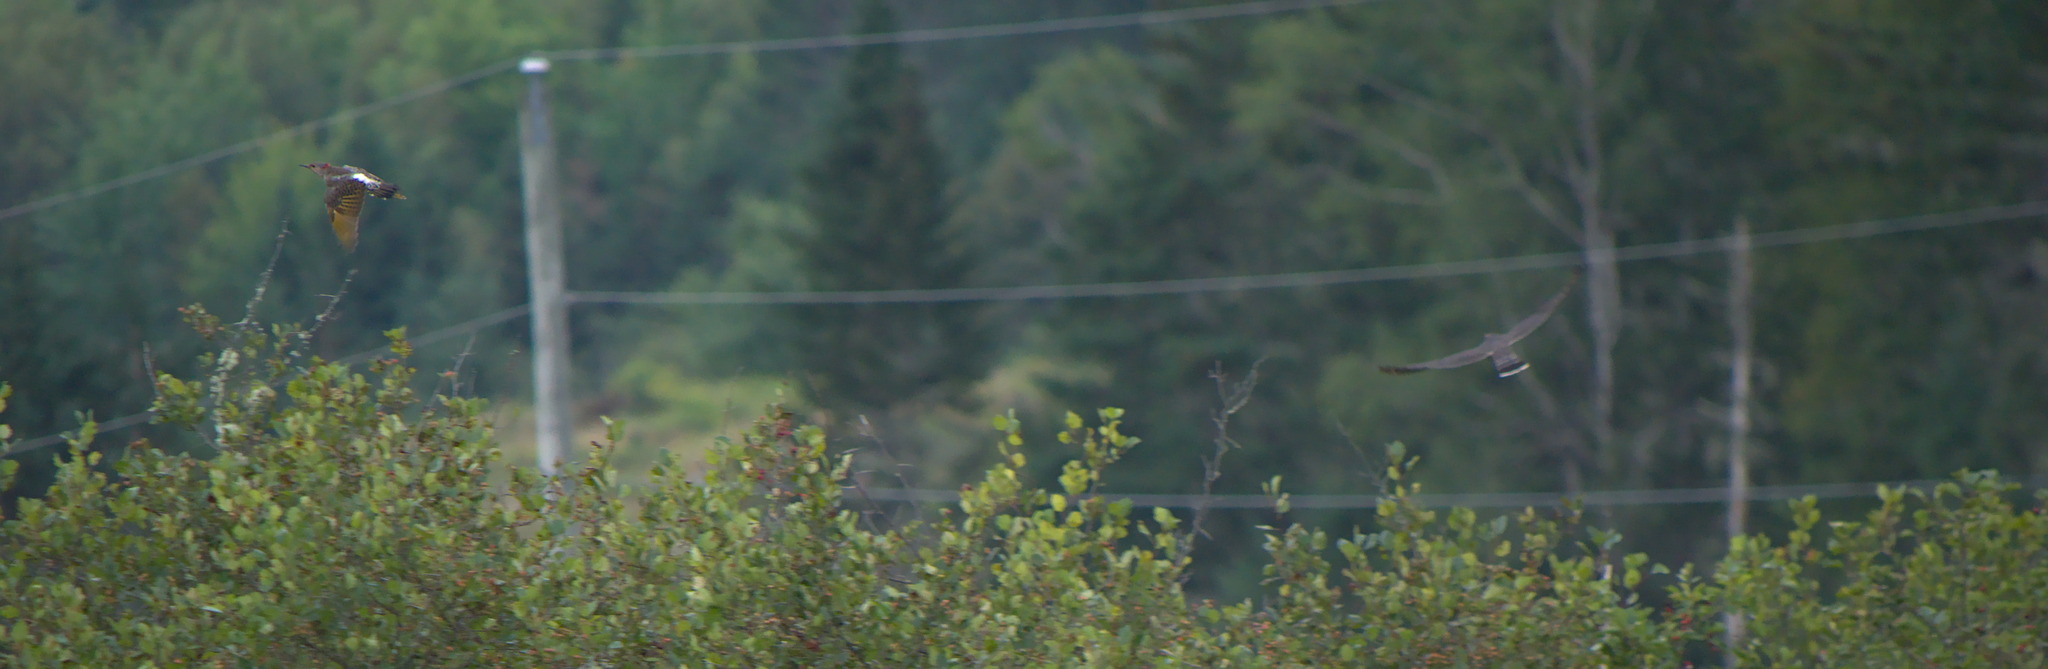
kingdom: Animalia
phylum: Chordata
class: Aves
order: Piciformes
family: Picidae
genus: Colaptes
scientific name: Colaptes auratus
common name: Northern flicker
